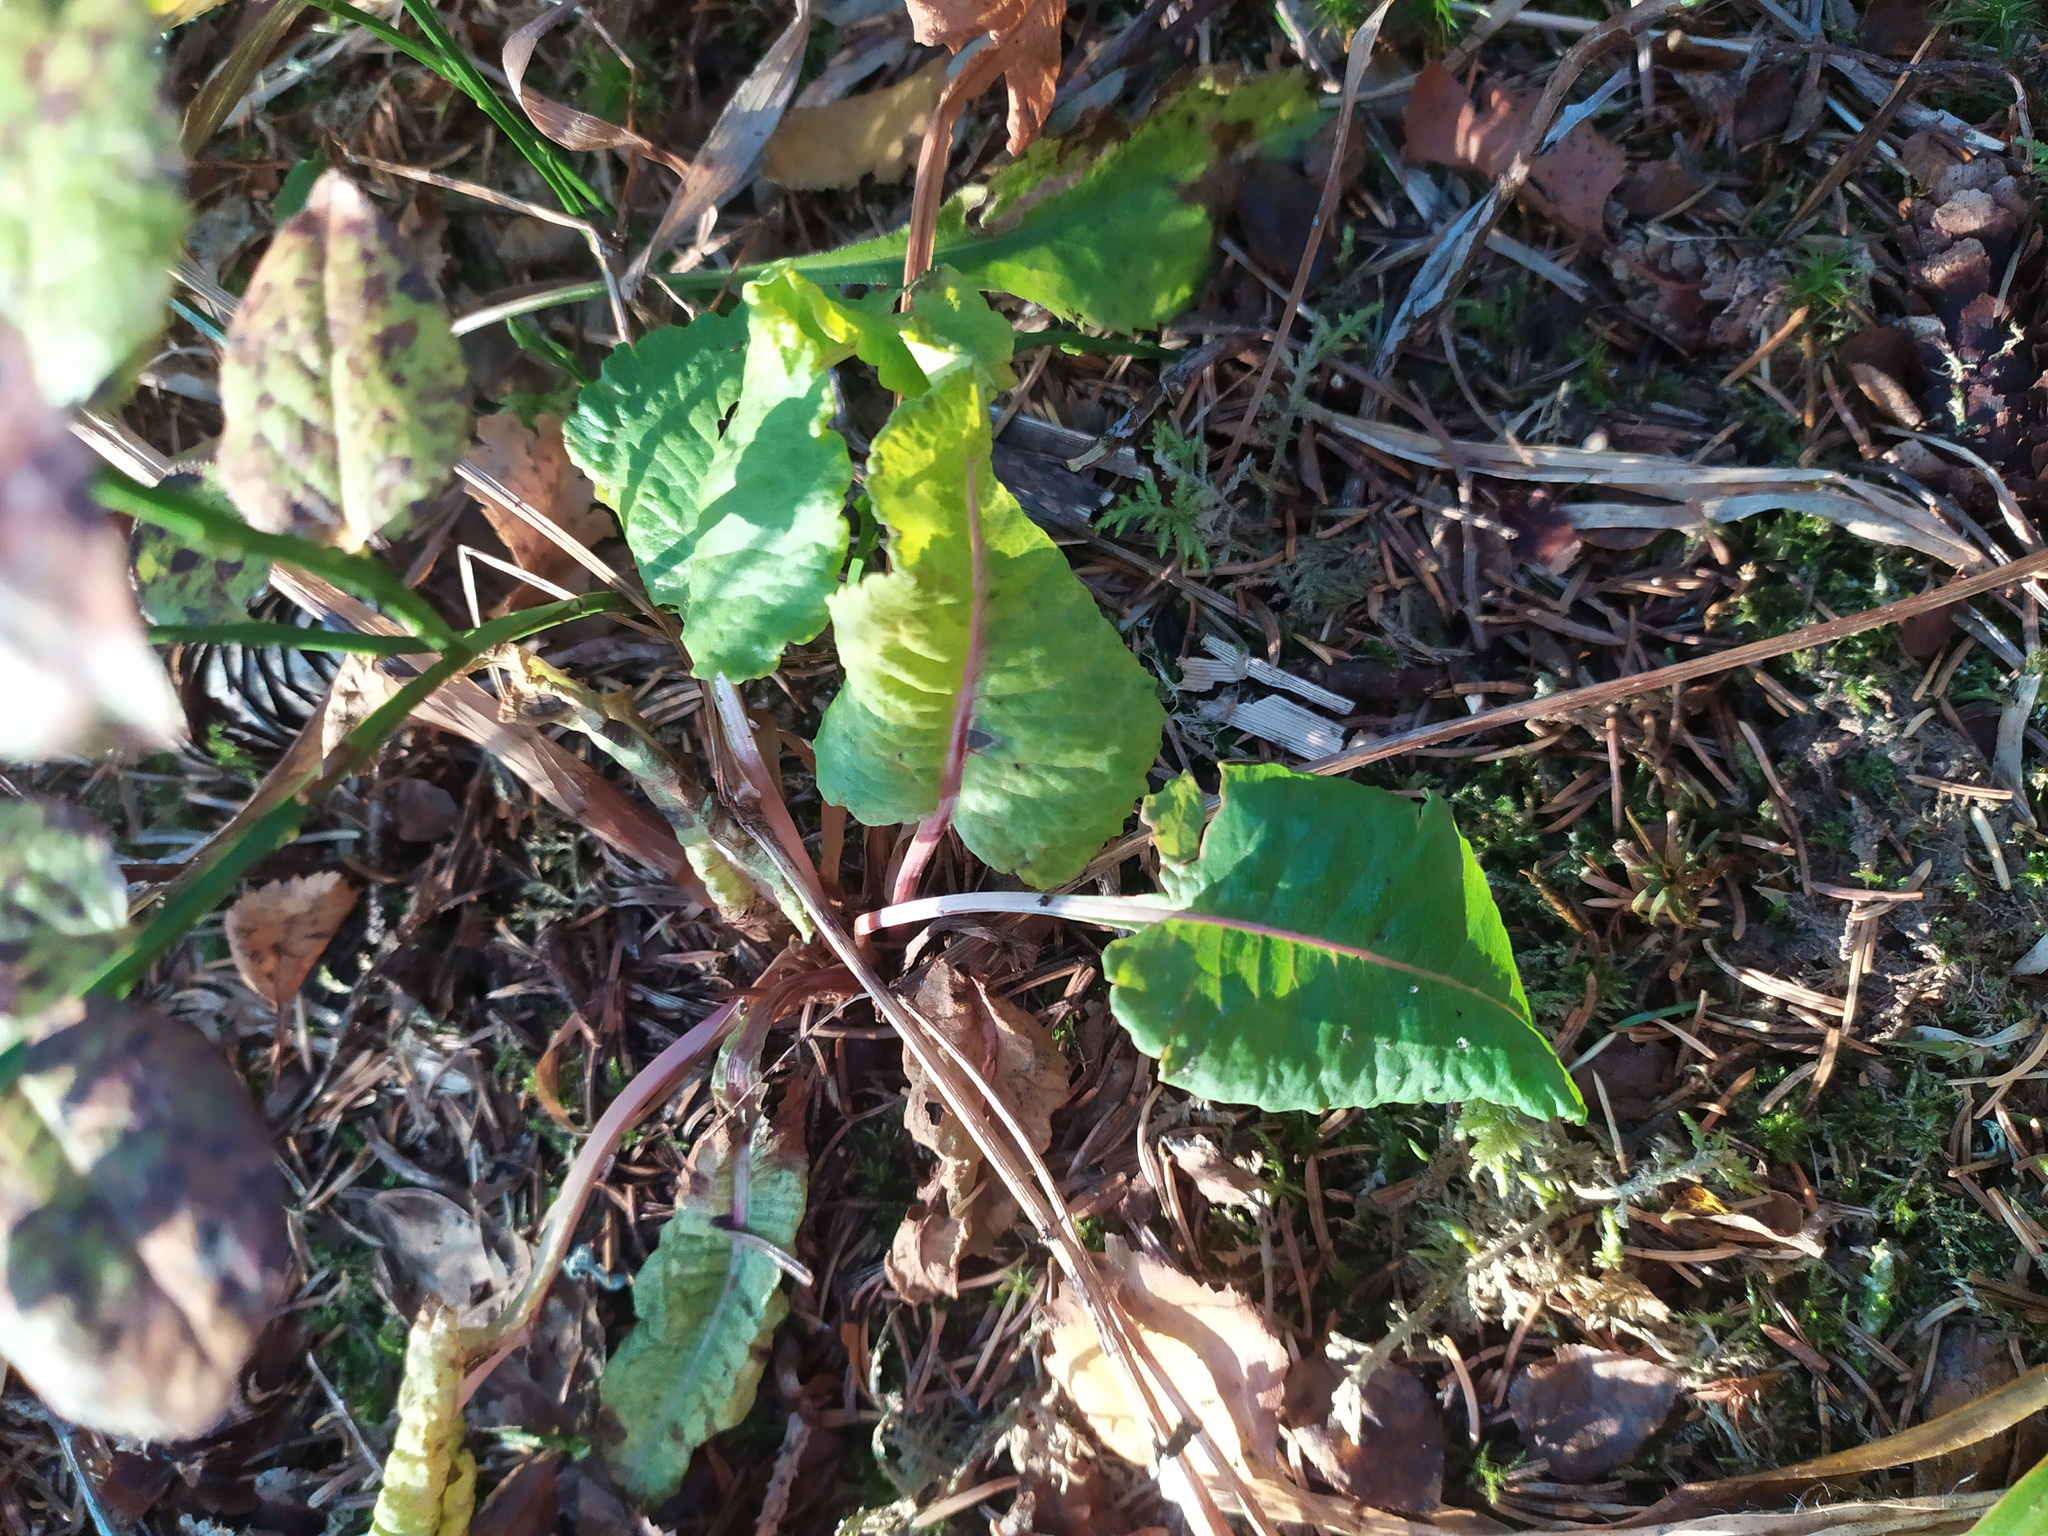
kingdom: Plantae
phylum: Tracheophyta
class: Magnoliopsida
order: Caryophyllales
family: Polygonaceae
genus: Rumex
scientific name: Rumex
